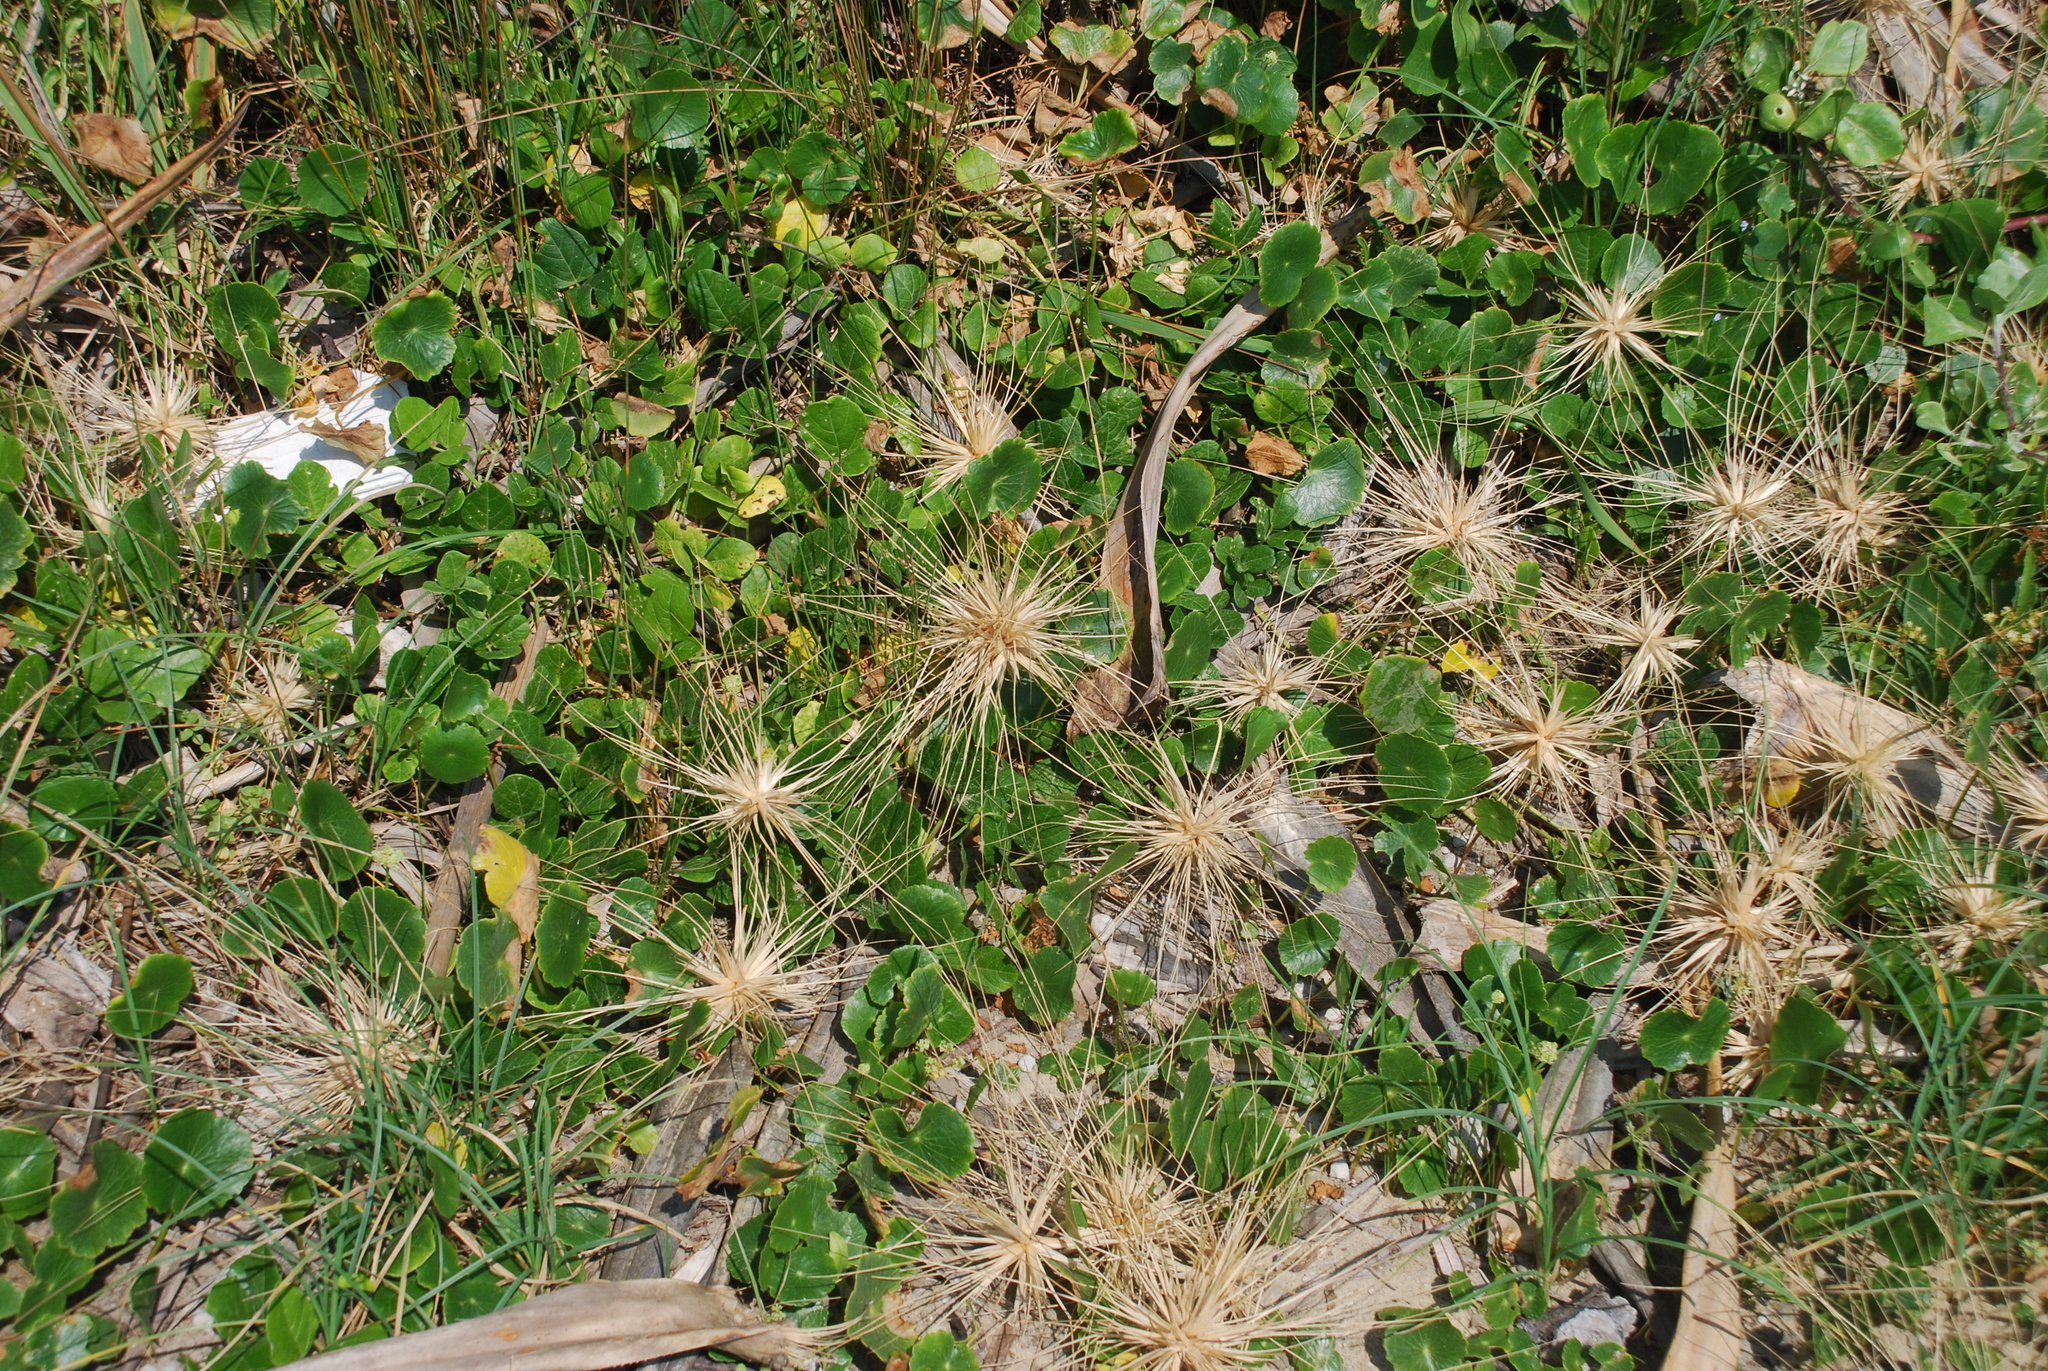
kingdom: Plantae
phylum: Tracheophyta
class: Liliopsida
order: Poales
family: Poaceae
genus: Spinifex
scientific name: Spinifex sericeus
